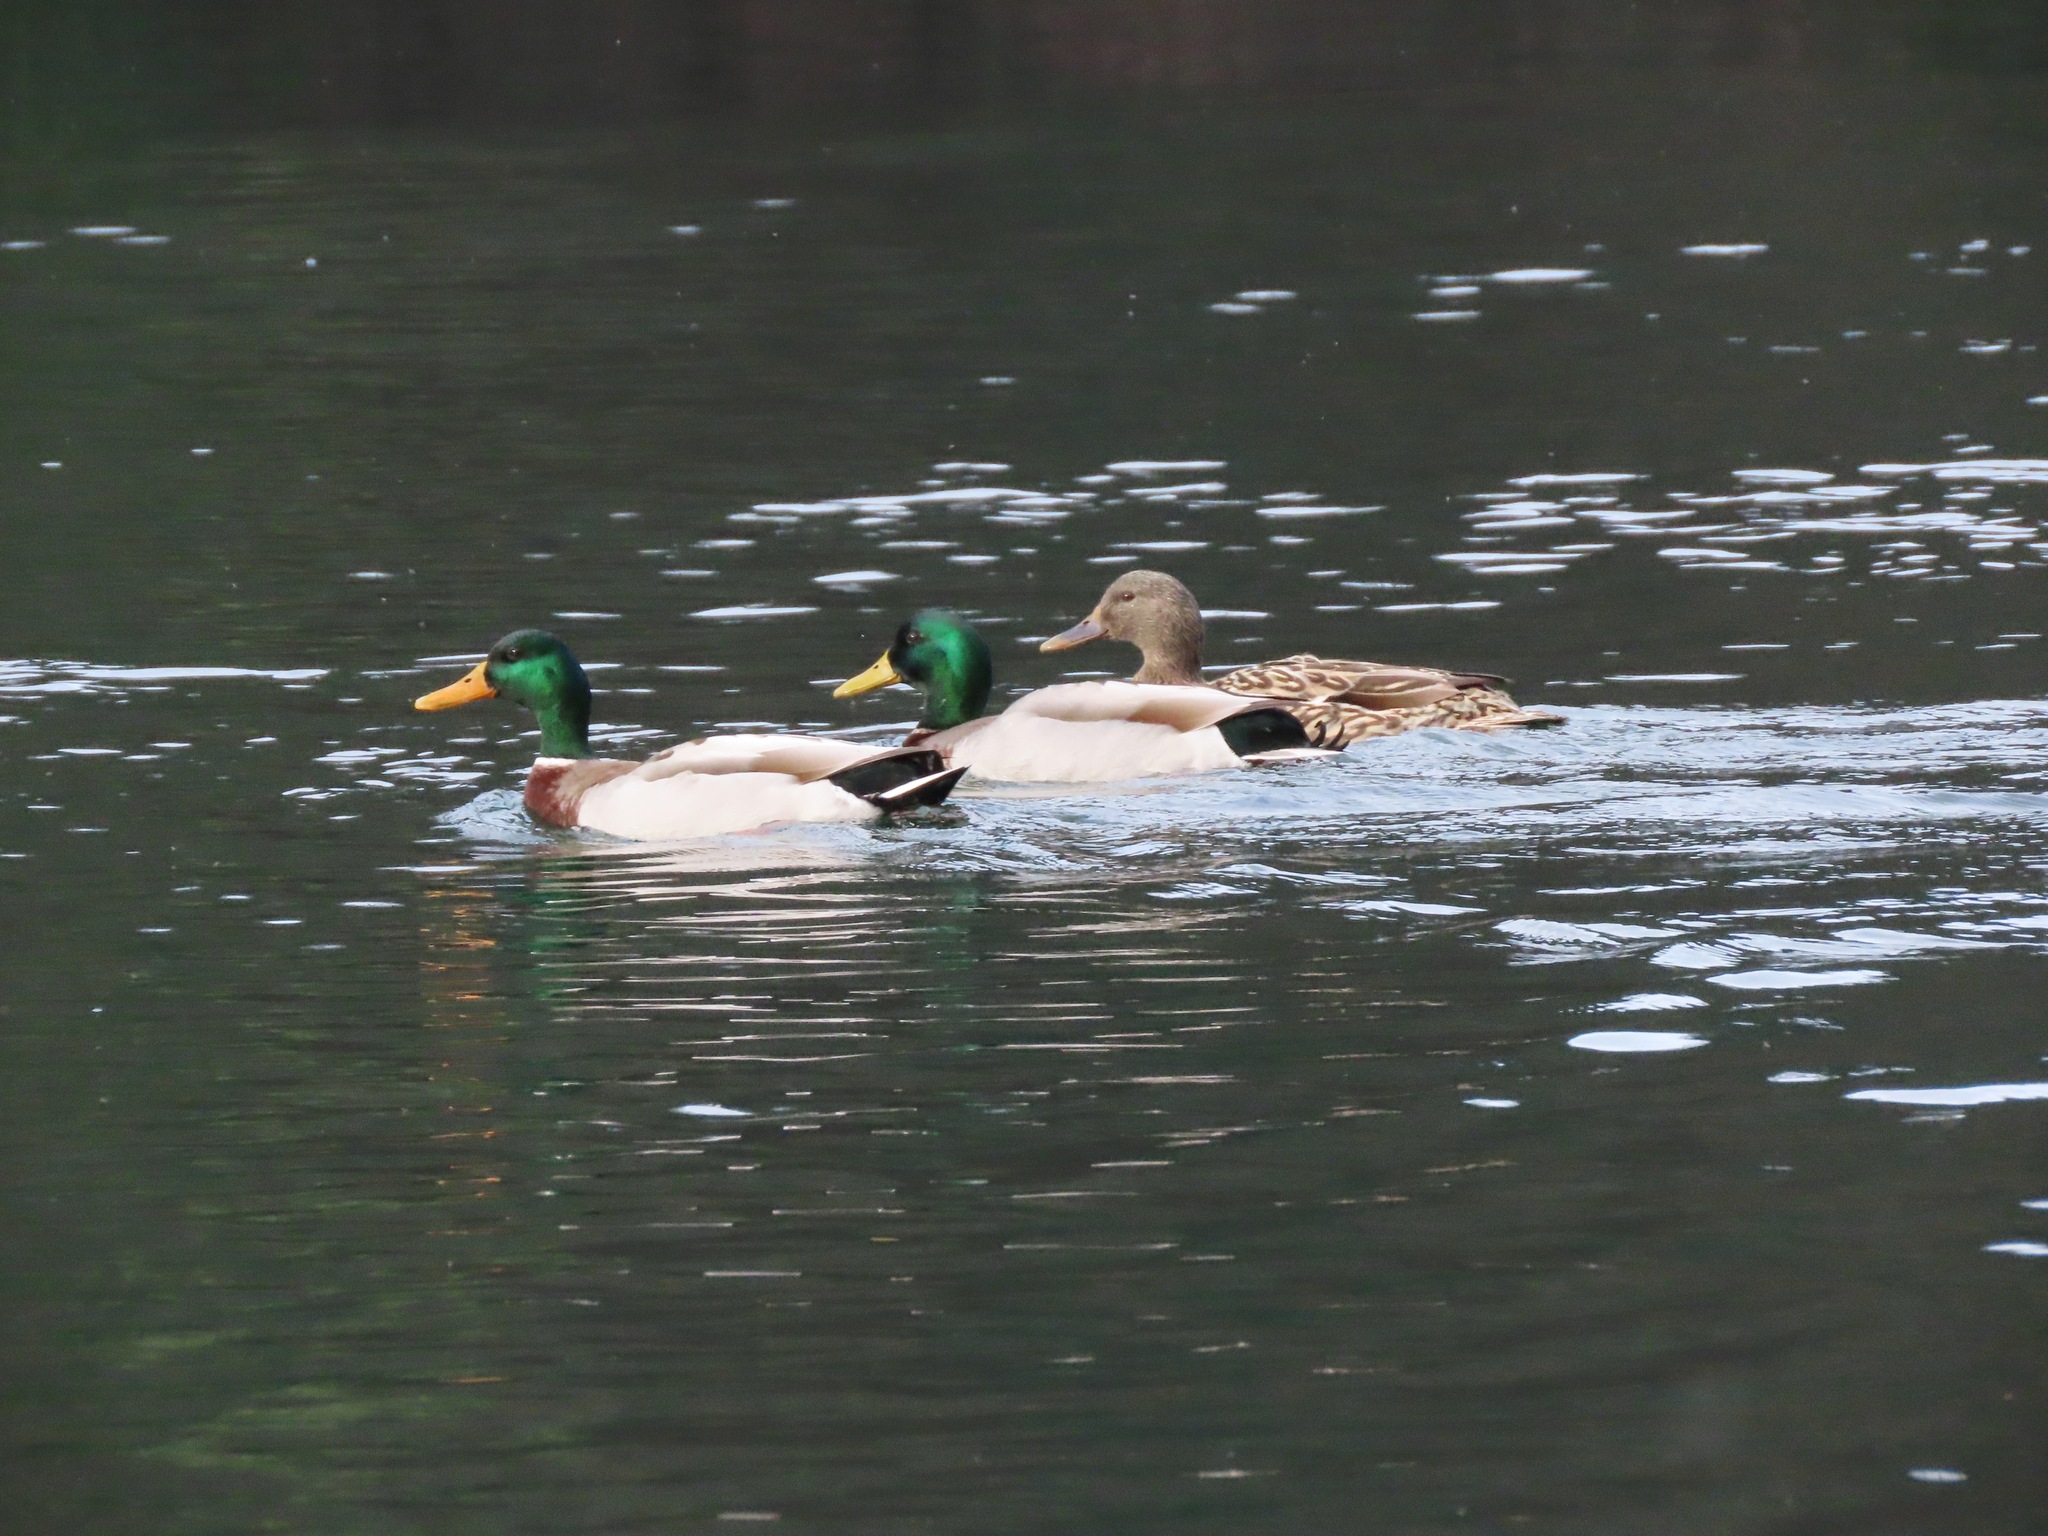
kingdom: Animalia
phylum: Chordata
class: Aves
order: Anseriformes
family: Anatidae
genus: Anas
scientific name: Anas platyrhynchos
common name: Mallard
